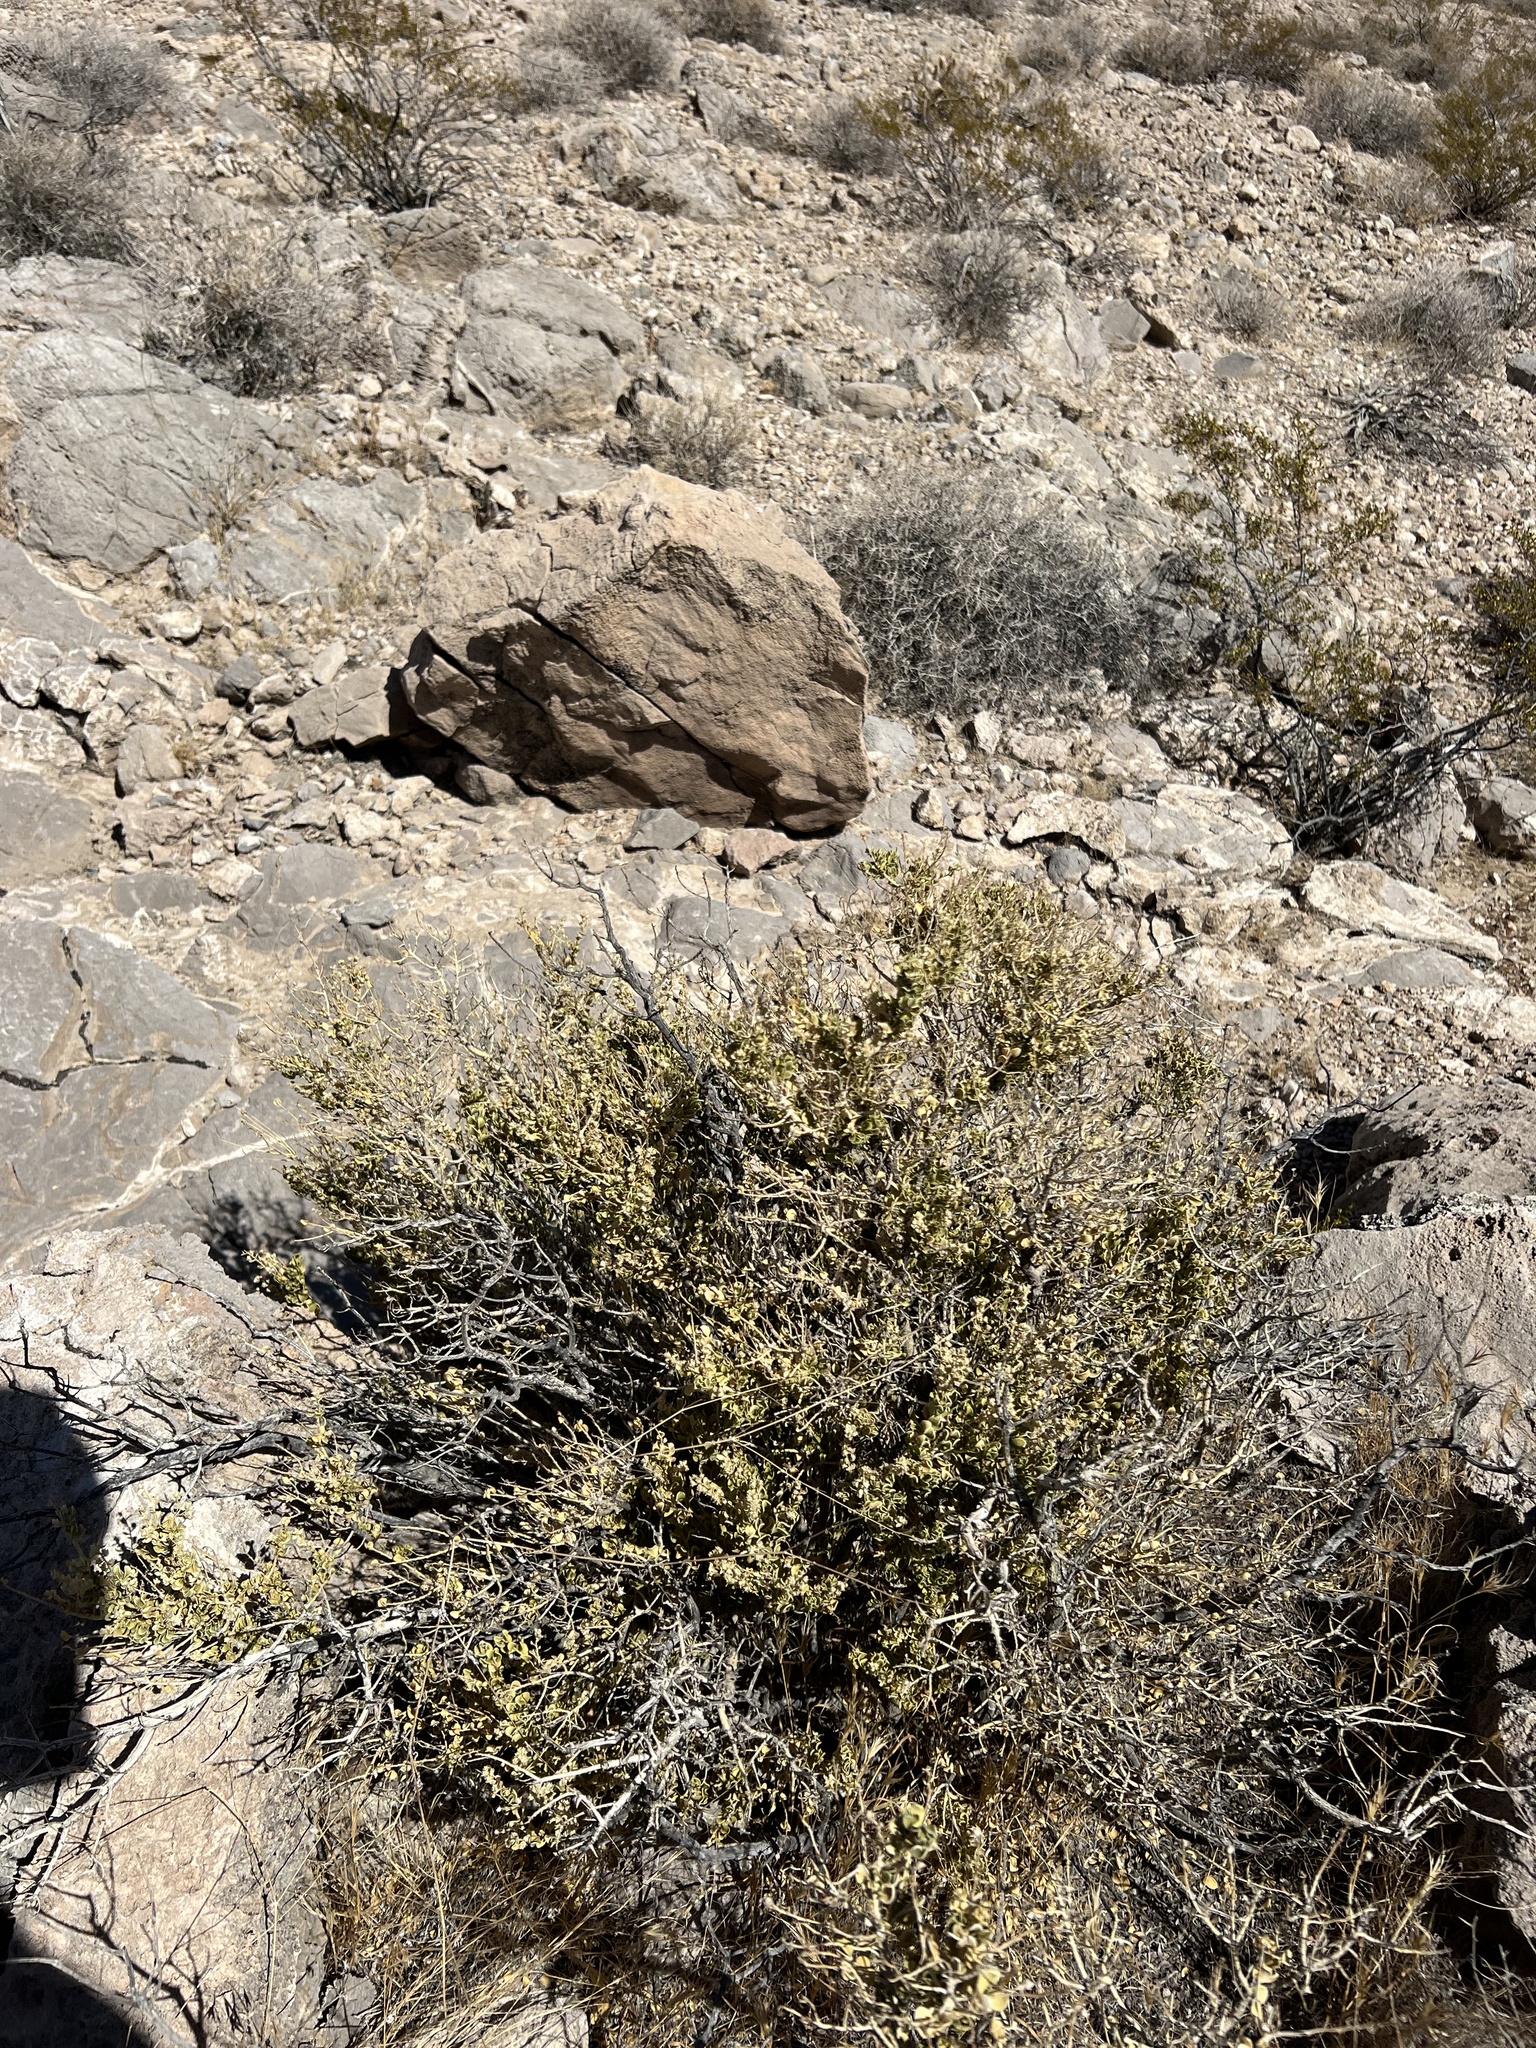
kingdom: Plantae
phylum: Tracheophyta
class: Magnoliopsida
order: Celastrales
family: Celastraceae
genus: Mortonia
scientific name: Mortonia utahensis
